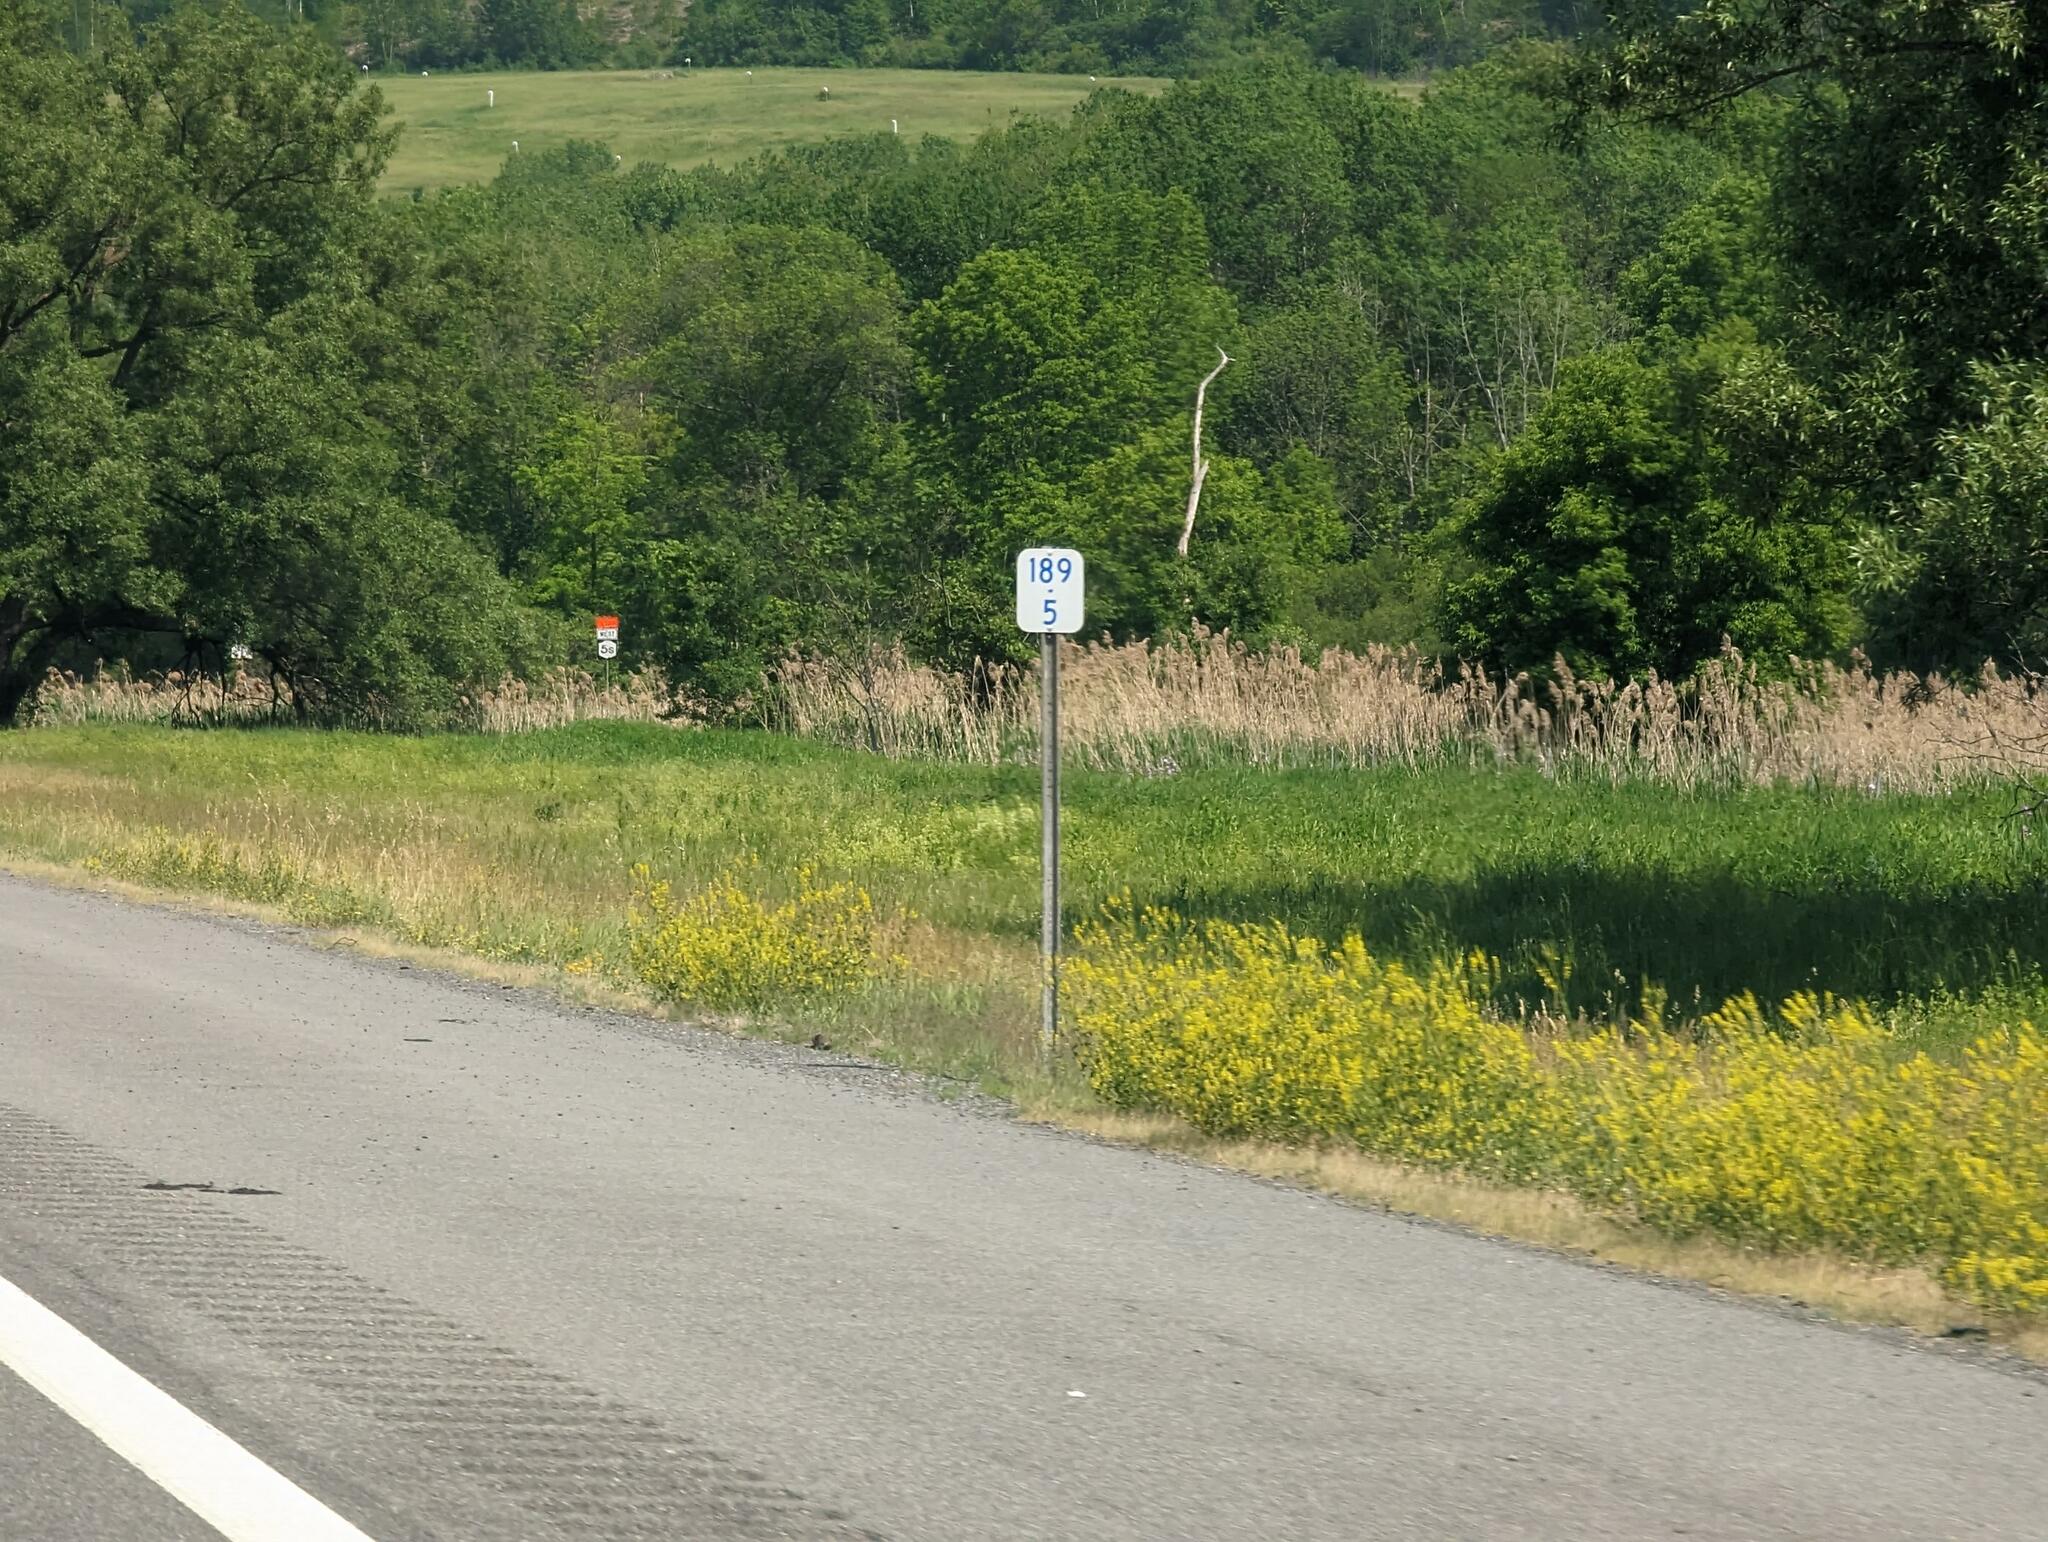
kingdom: Plantae
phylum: Tracheophyta
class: Liliopsida
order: Poales
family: Poaceae
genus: Phragmites
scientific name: Phragmites australis
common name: Common reed
